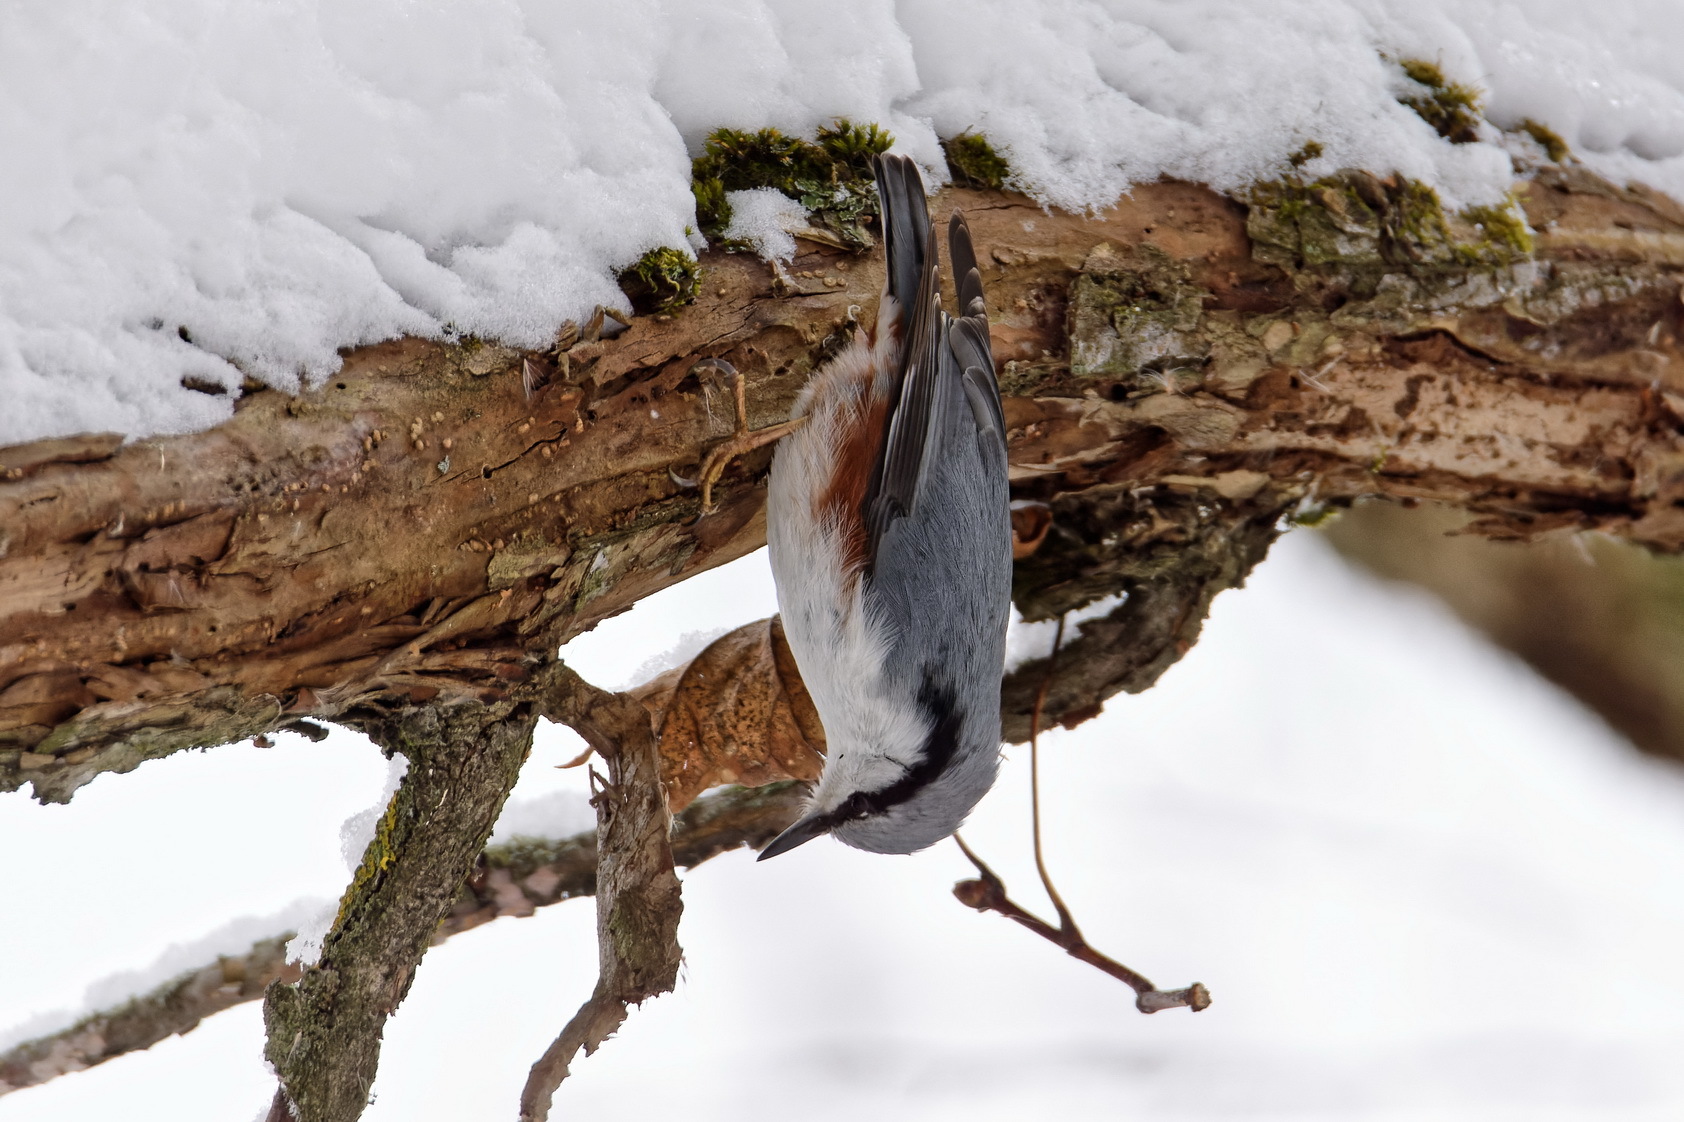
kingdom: Animalia
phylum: Chordata
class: Aves
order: Passeriformes
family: Sittidae
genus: Sitta
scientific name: Sitta europaea
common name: Eurasian nuthatch
